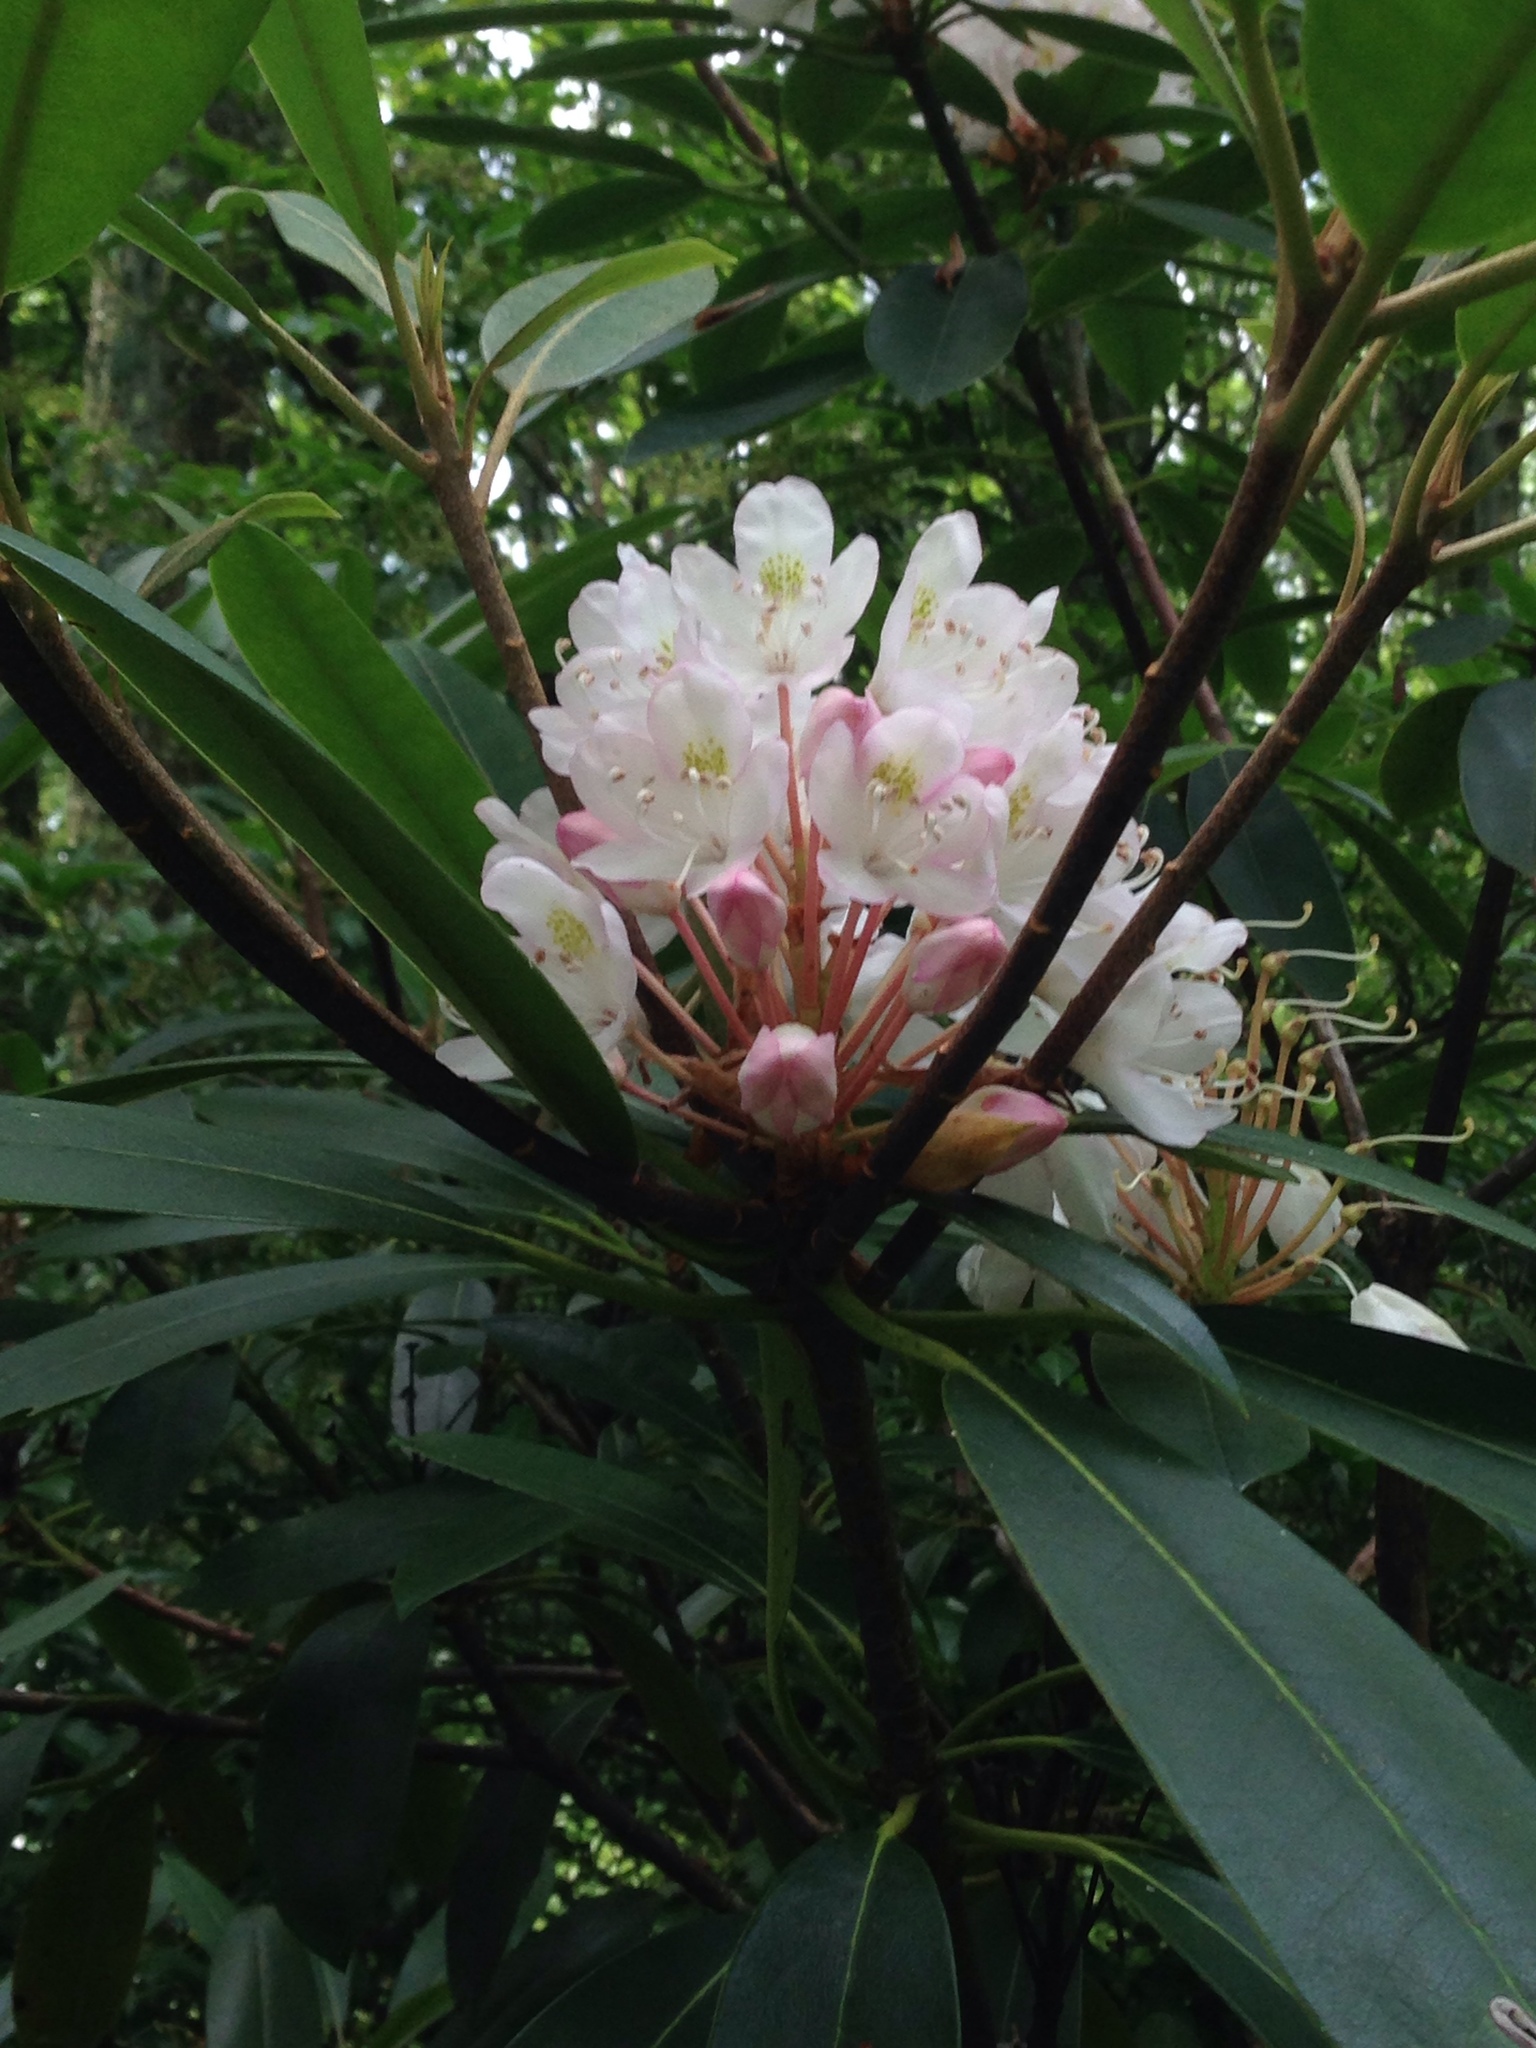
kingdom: Plantae
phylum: Tracheophyta
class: Magnoliopsida
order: Ericales
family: Ericaceae
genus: Rhododendron
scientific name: Rhododendron maximum
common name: Great rhododendron
